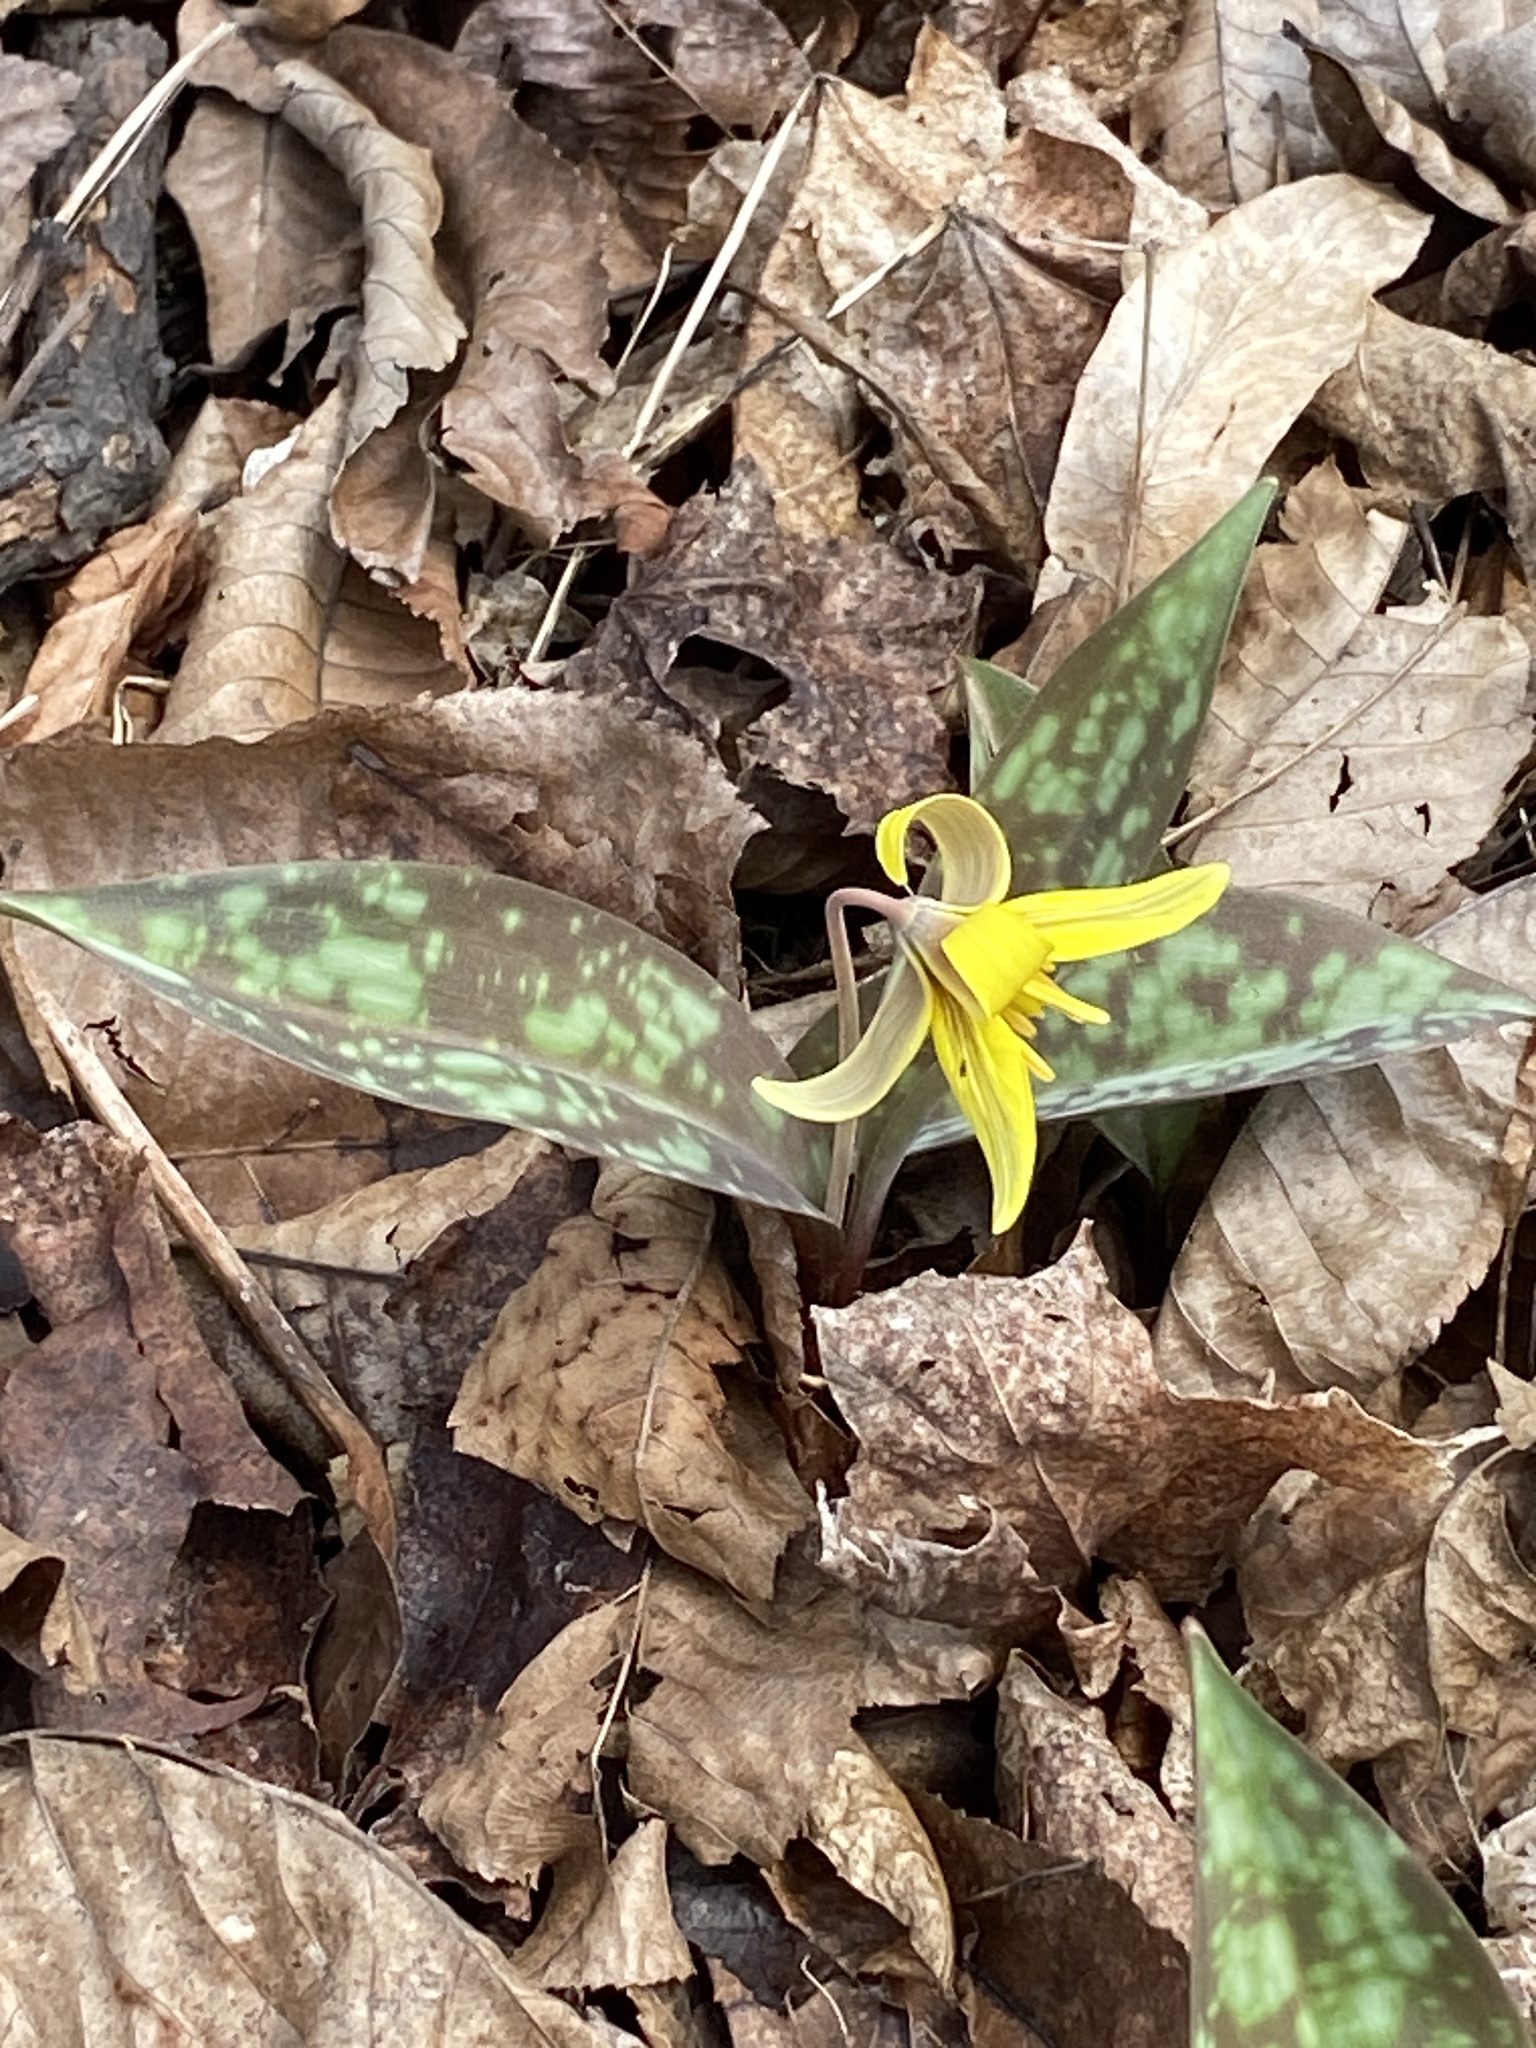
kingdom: Plantae
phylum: Tracheophyta
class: Liliopsida
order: Liliales
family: Liliaceae
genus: Erythronium
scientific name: Erythronium americanum
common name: Yellow adder's-tongue
